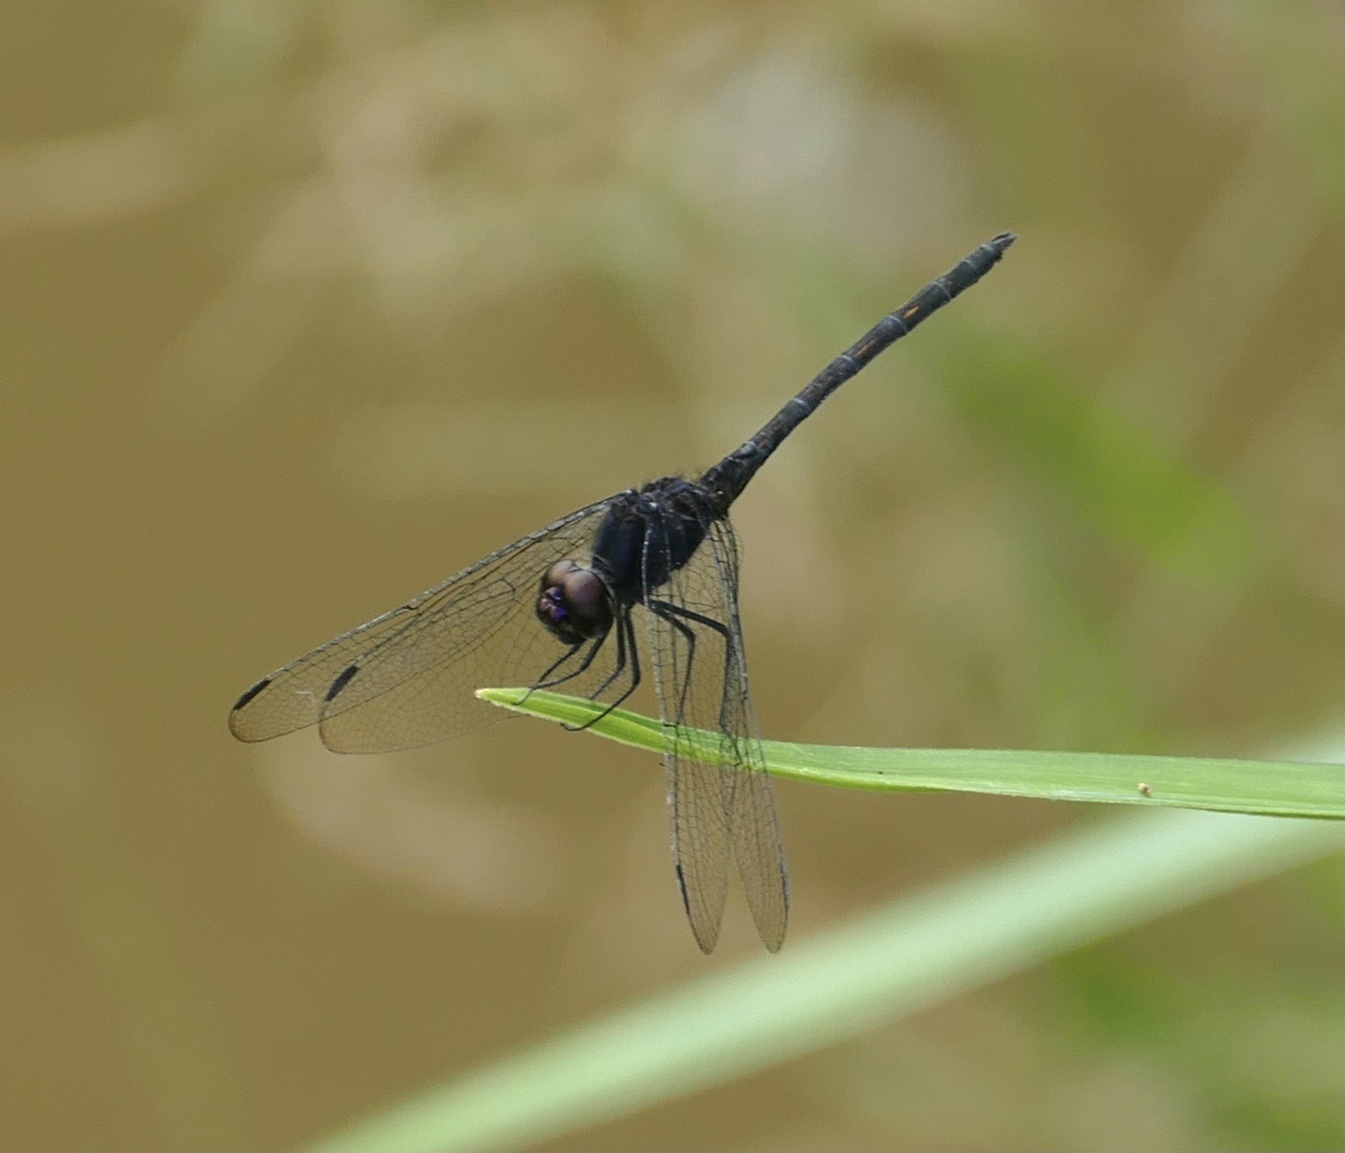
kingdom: Animalia
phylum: Arthropoda
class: Insecta
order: Odonata
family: Libellulidae
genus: Trithemis
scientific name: Trithemis grouti
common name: Dark dropwing
